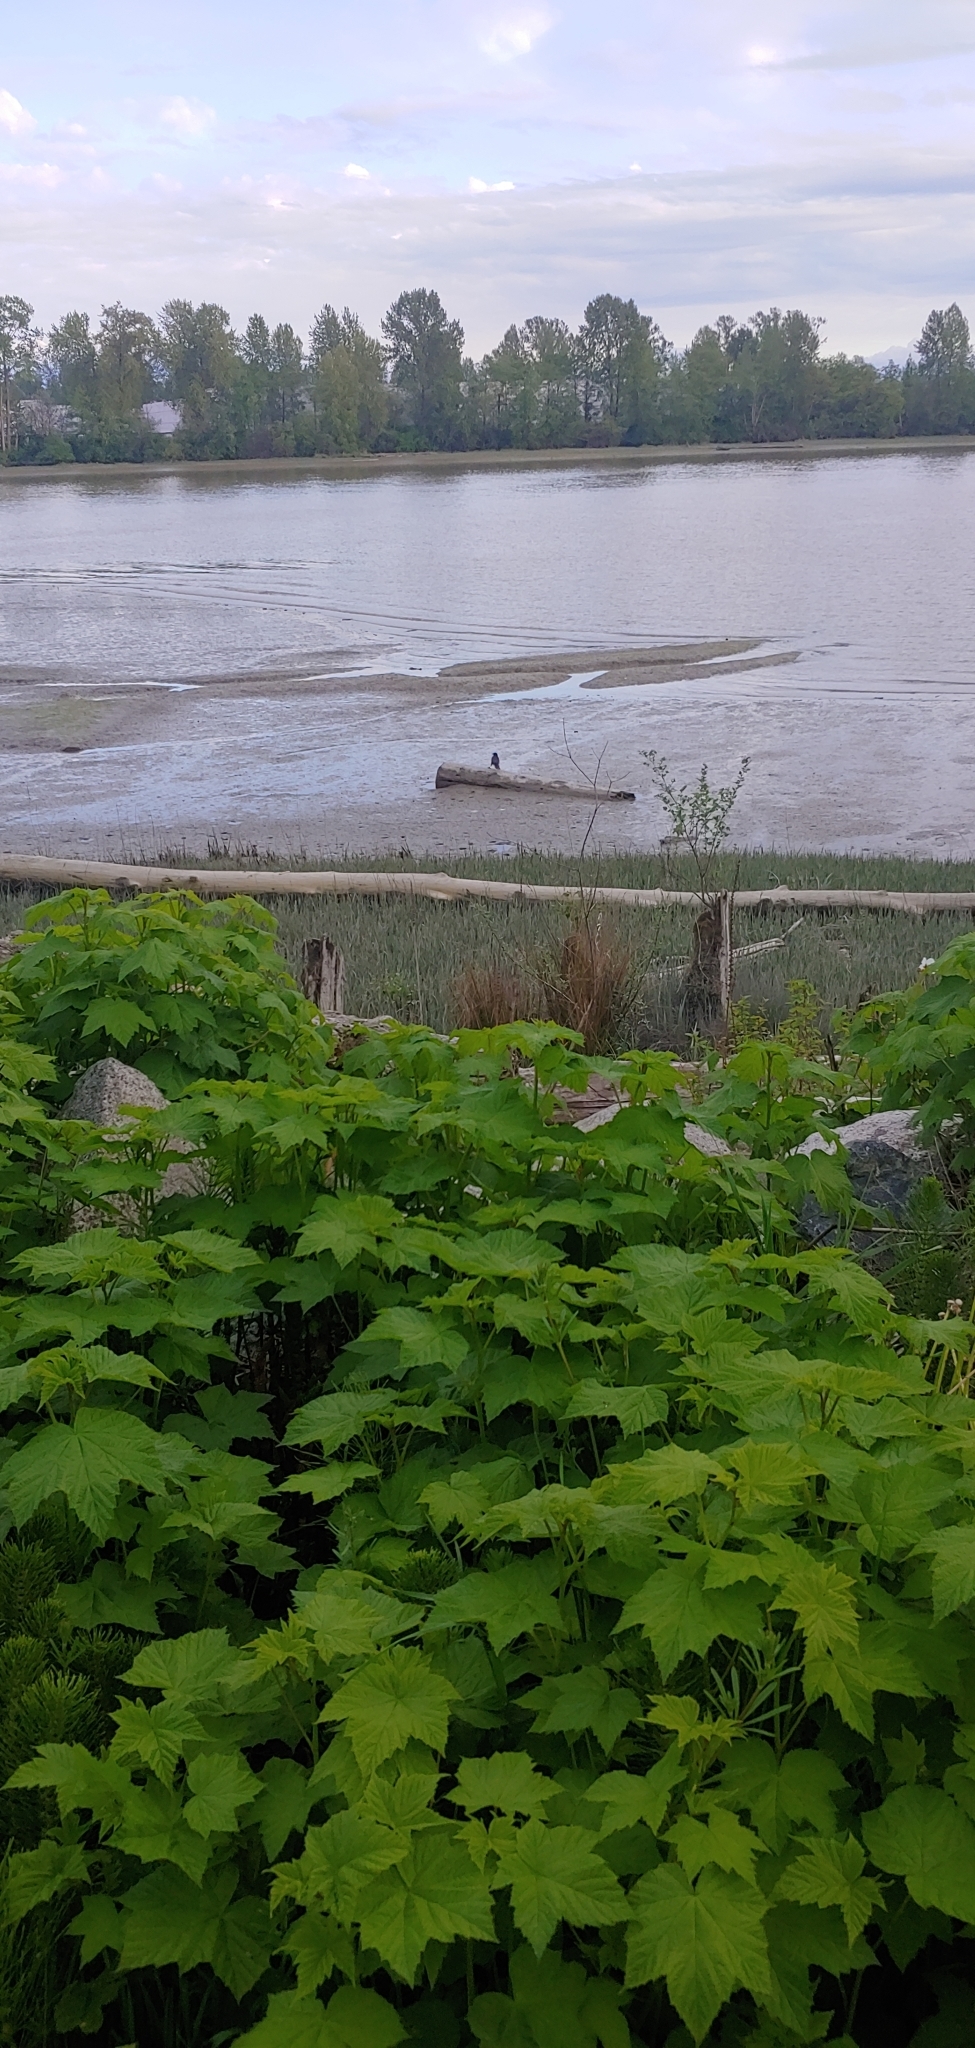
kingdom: Animalia
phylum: Chordata
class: Aves
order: Passeriformes
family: Corvidae
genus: Corvus
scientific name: Corvus brachyrhynchos
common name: American crow
